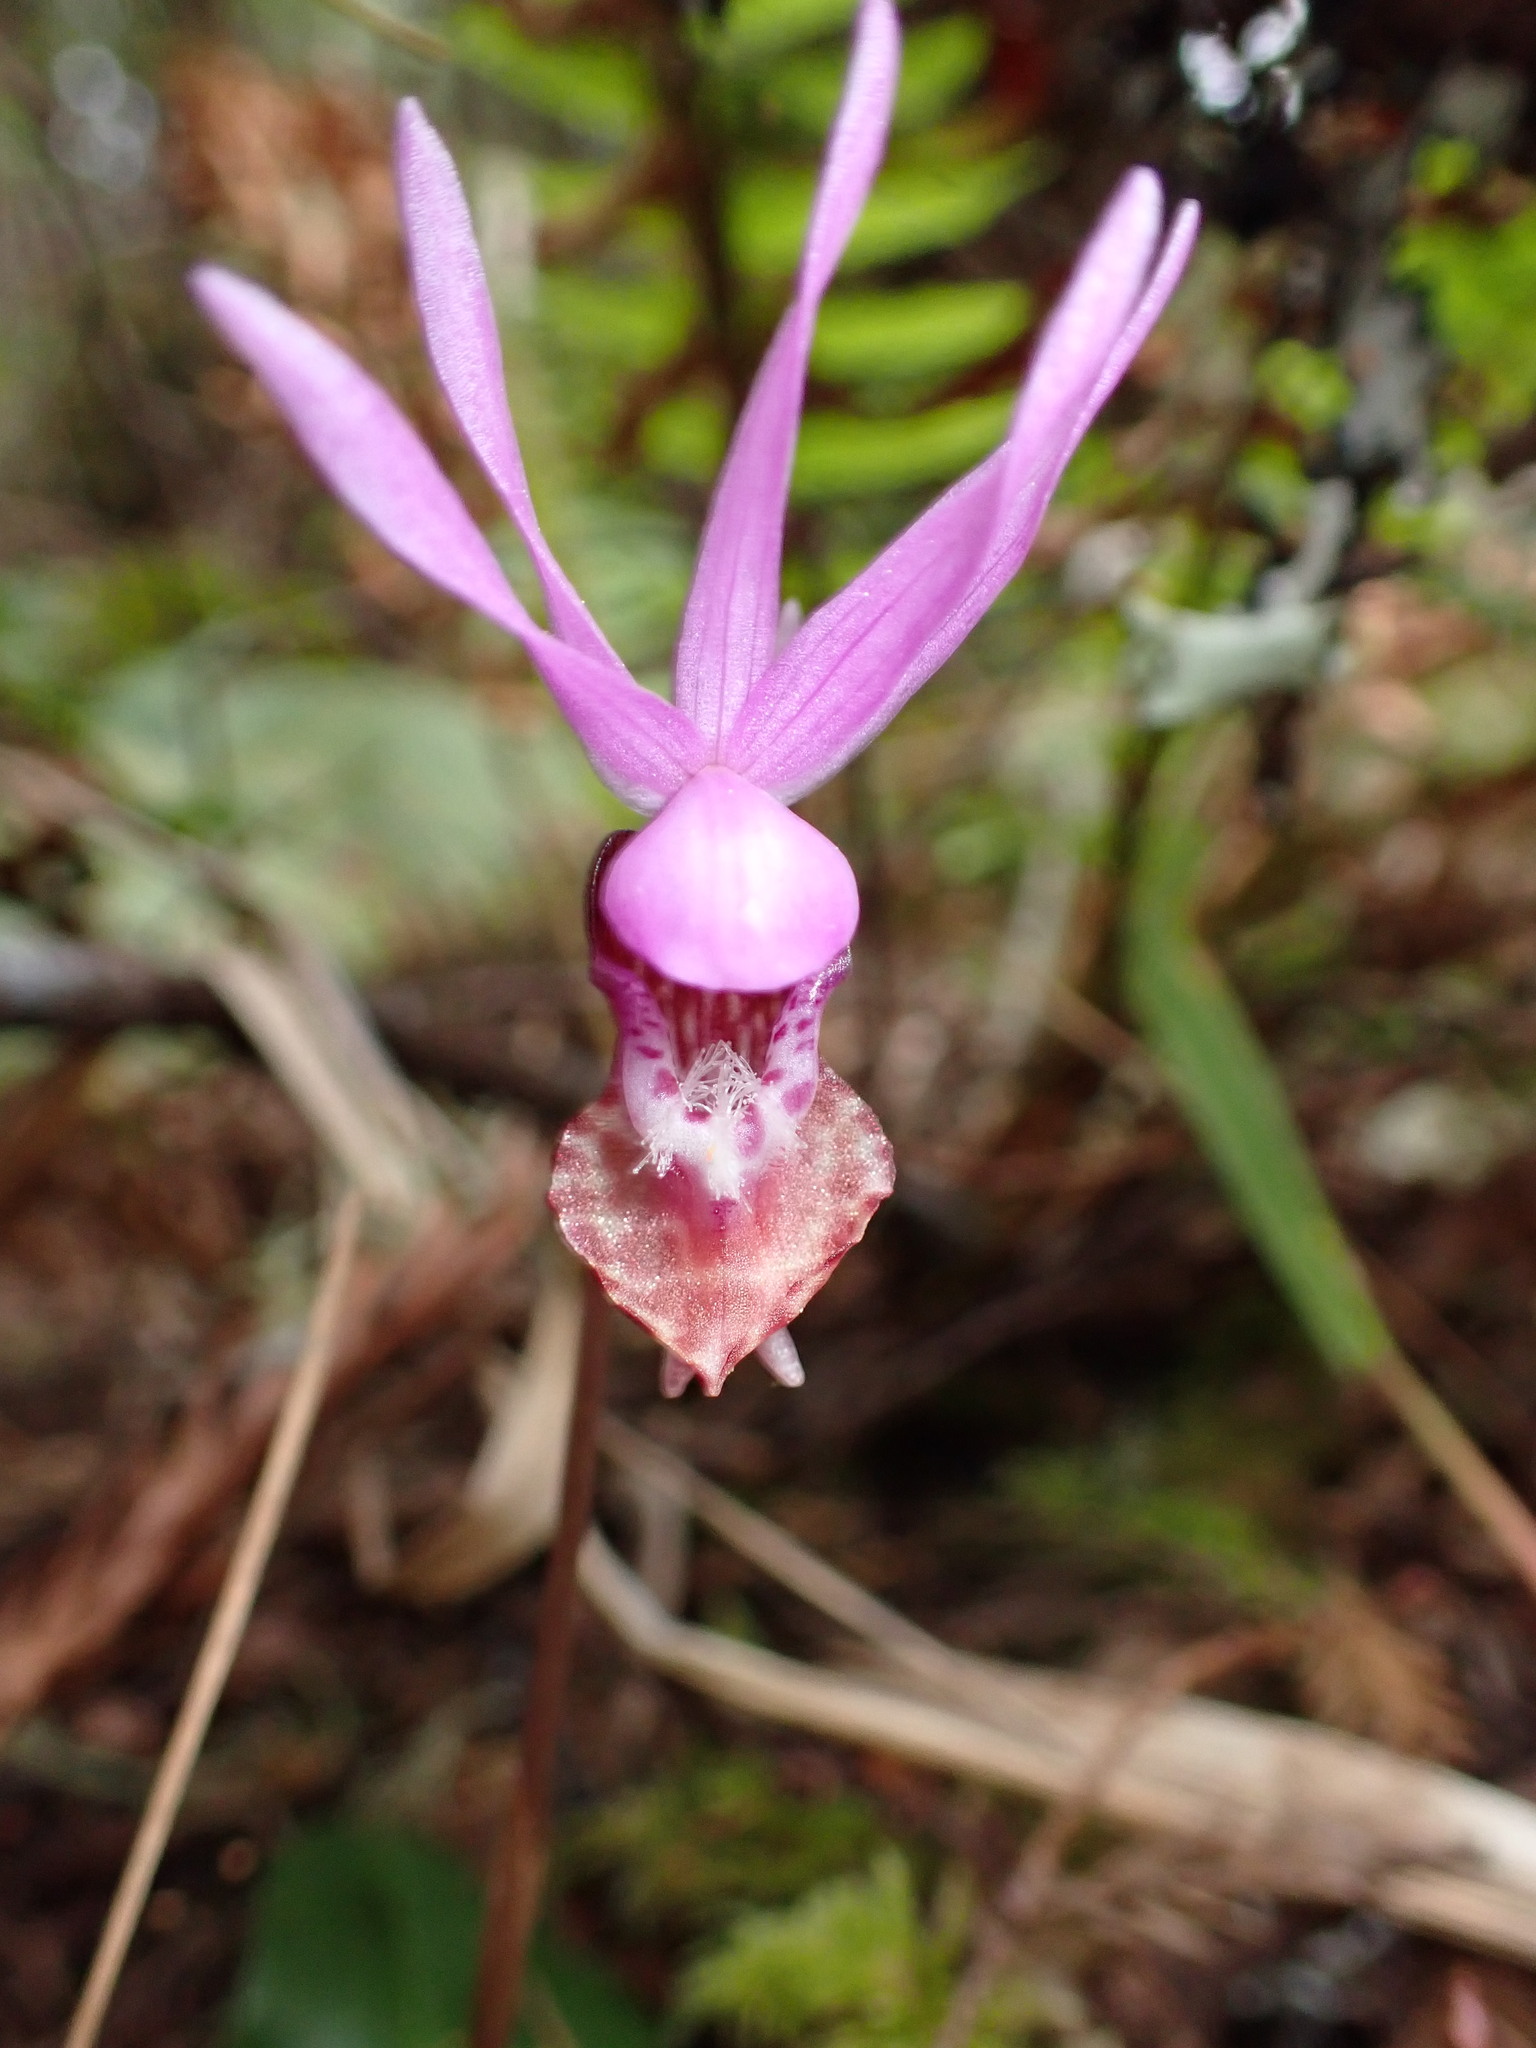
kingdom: Plantae
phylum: Tracheophyta
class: Liliopsida
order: Asparagales
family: Orchidaceae
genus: Calypso
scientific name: Calypso bulbosa
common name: Calypso
